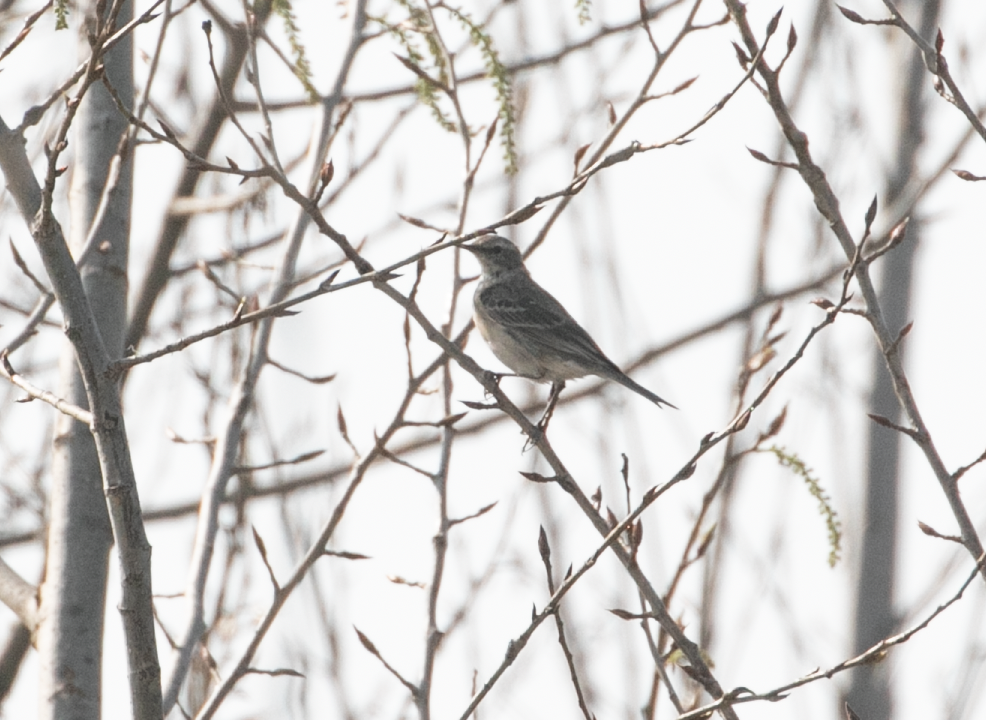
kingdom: Animalia
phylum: Chordata
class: Aves
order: Passeriformes
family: Motacillidae
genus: Anthus
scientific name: Anthus spinoletta
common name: Water pipit
